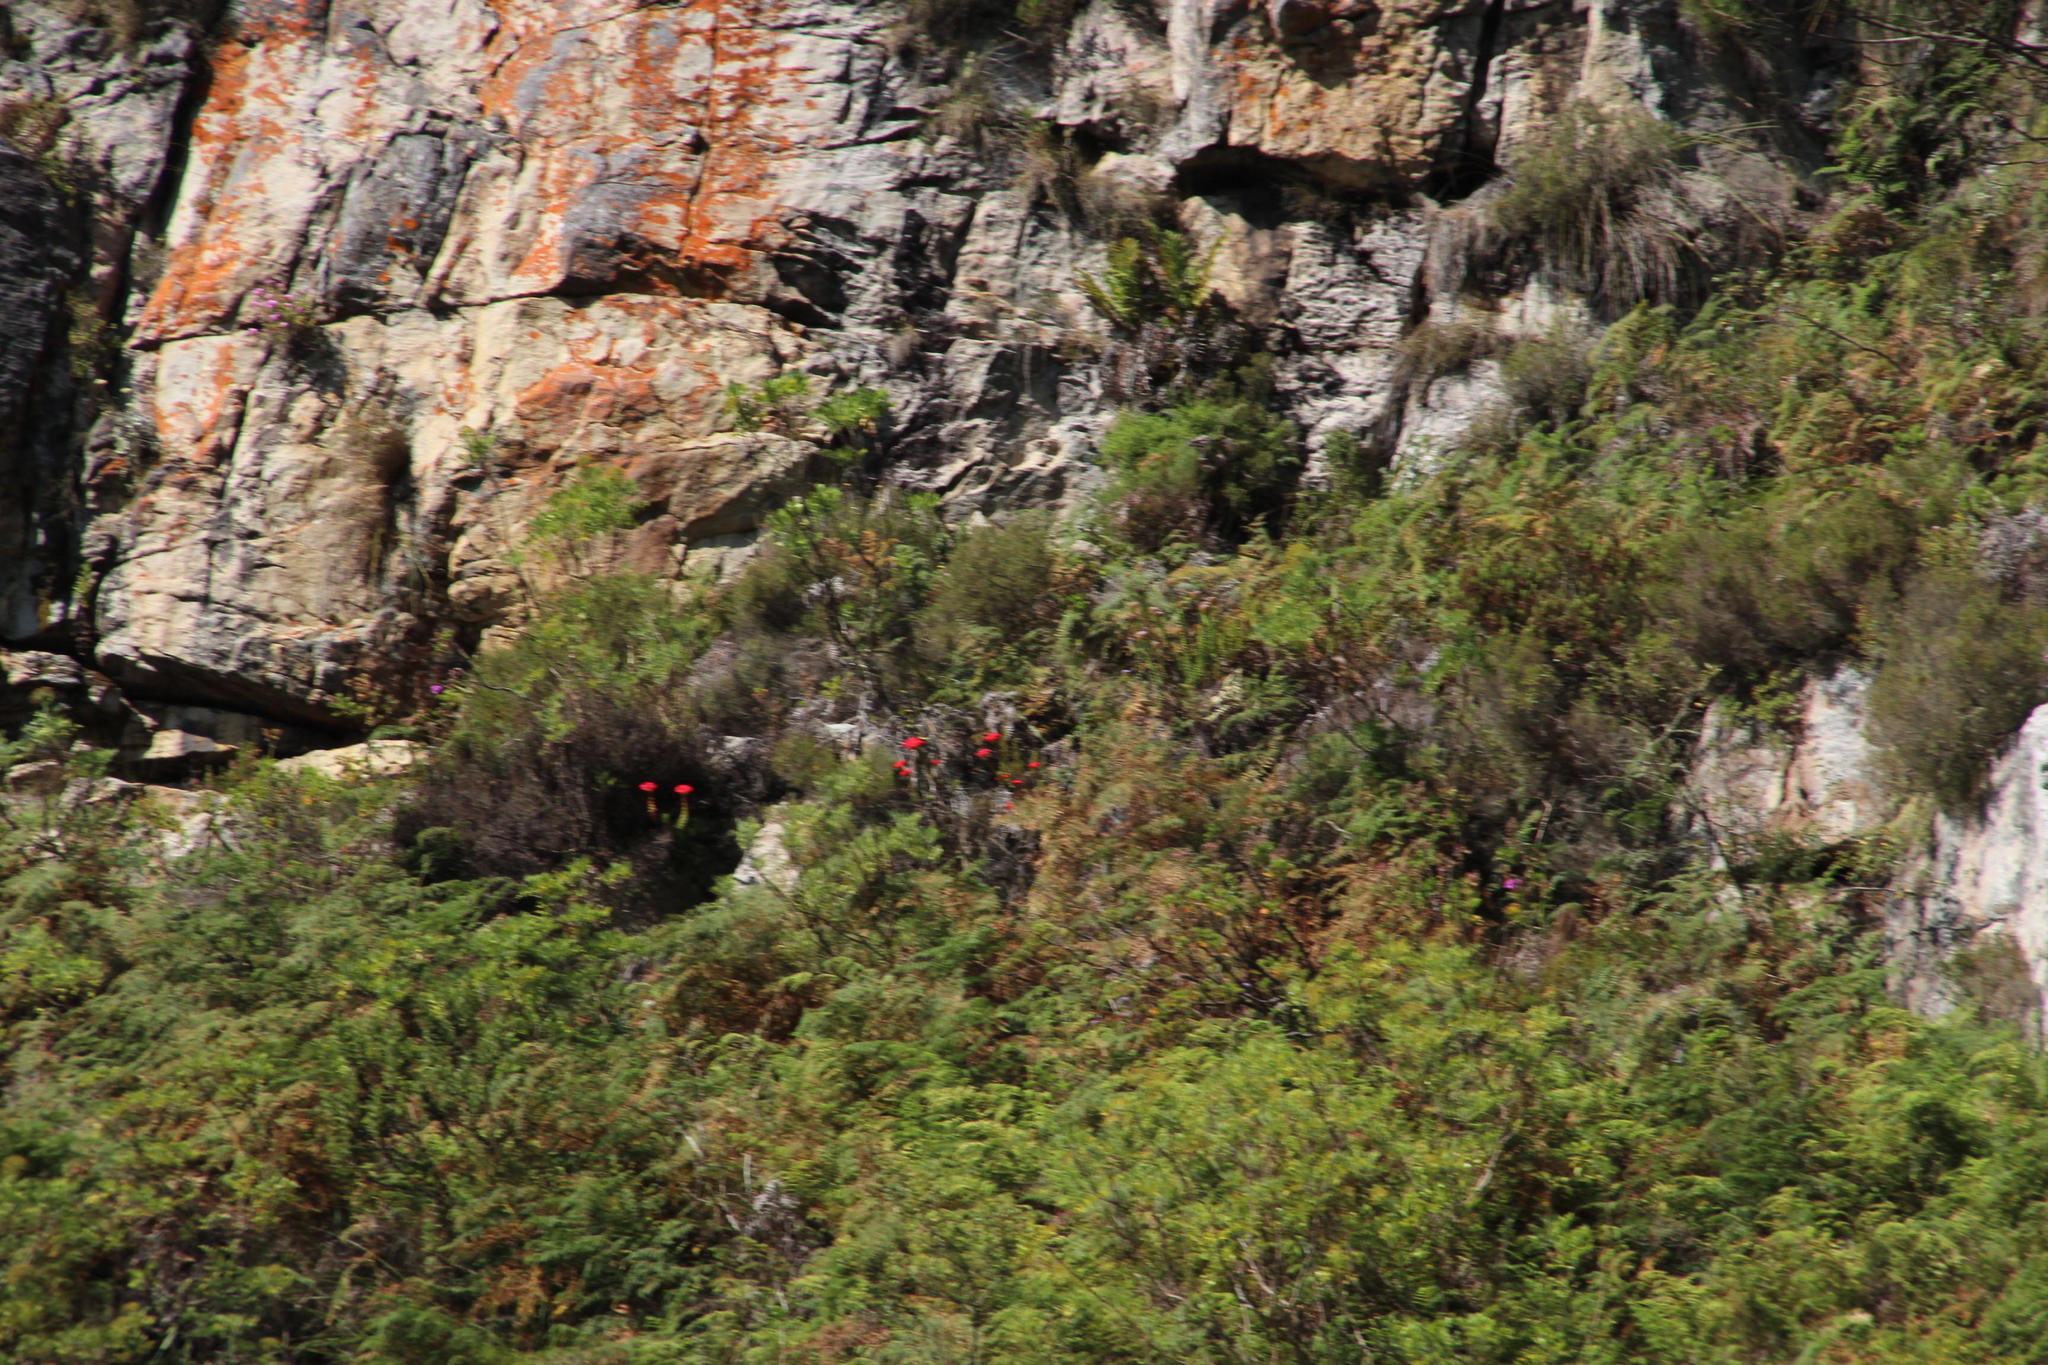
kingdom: Plantae
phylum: Tracheophyta
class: Magnoliopsida
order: Saxifragales
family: Crassulaceae
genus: Crassula
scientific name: Crassula coccinea
